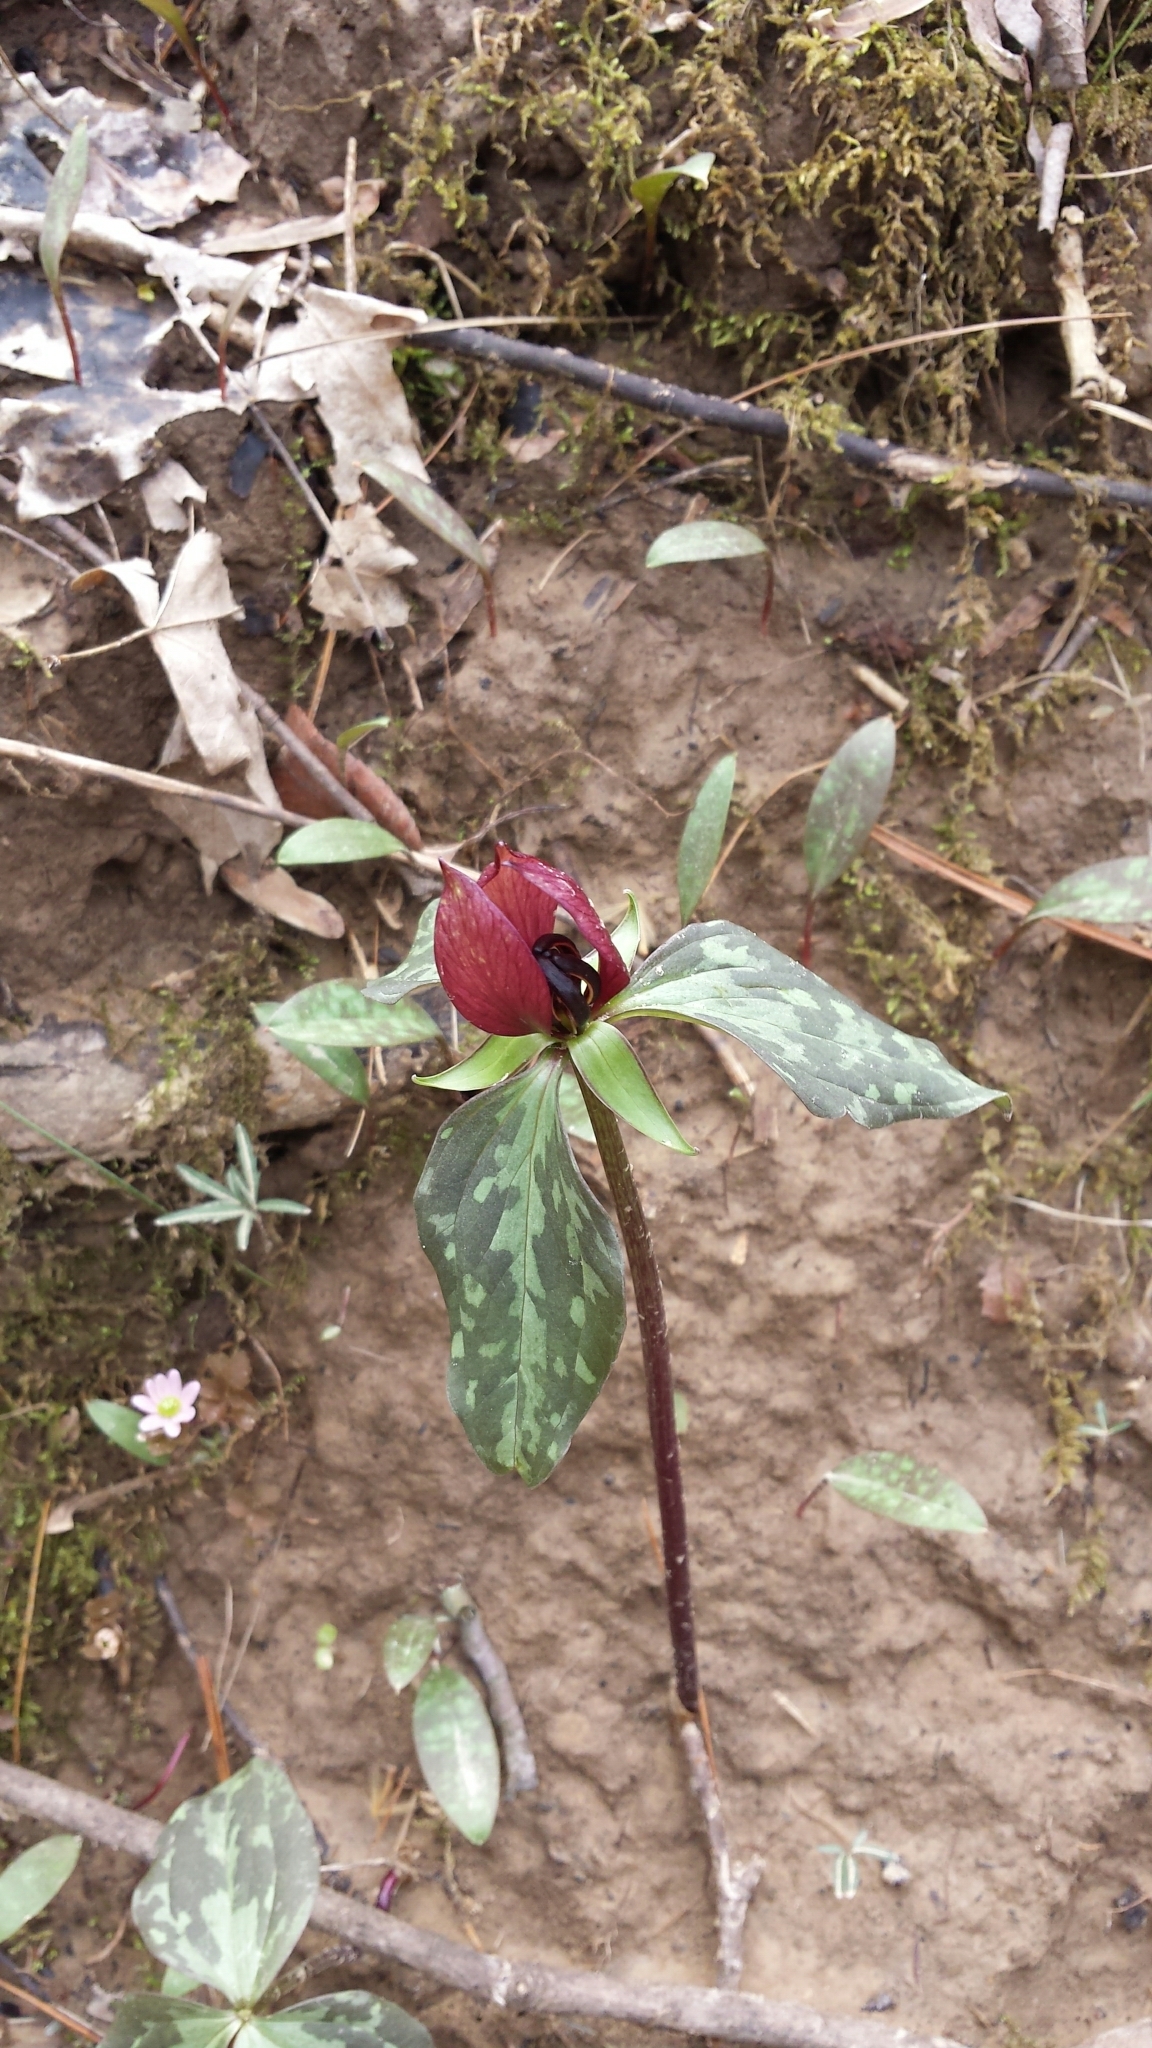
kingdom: Plantae
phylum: Tracheophyta
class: Liliopsida
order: Liliales
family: Melanthiaceae
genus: Trillium
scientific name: Trillium recurvatum
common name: Bloody butcher
